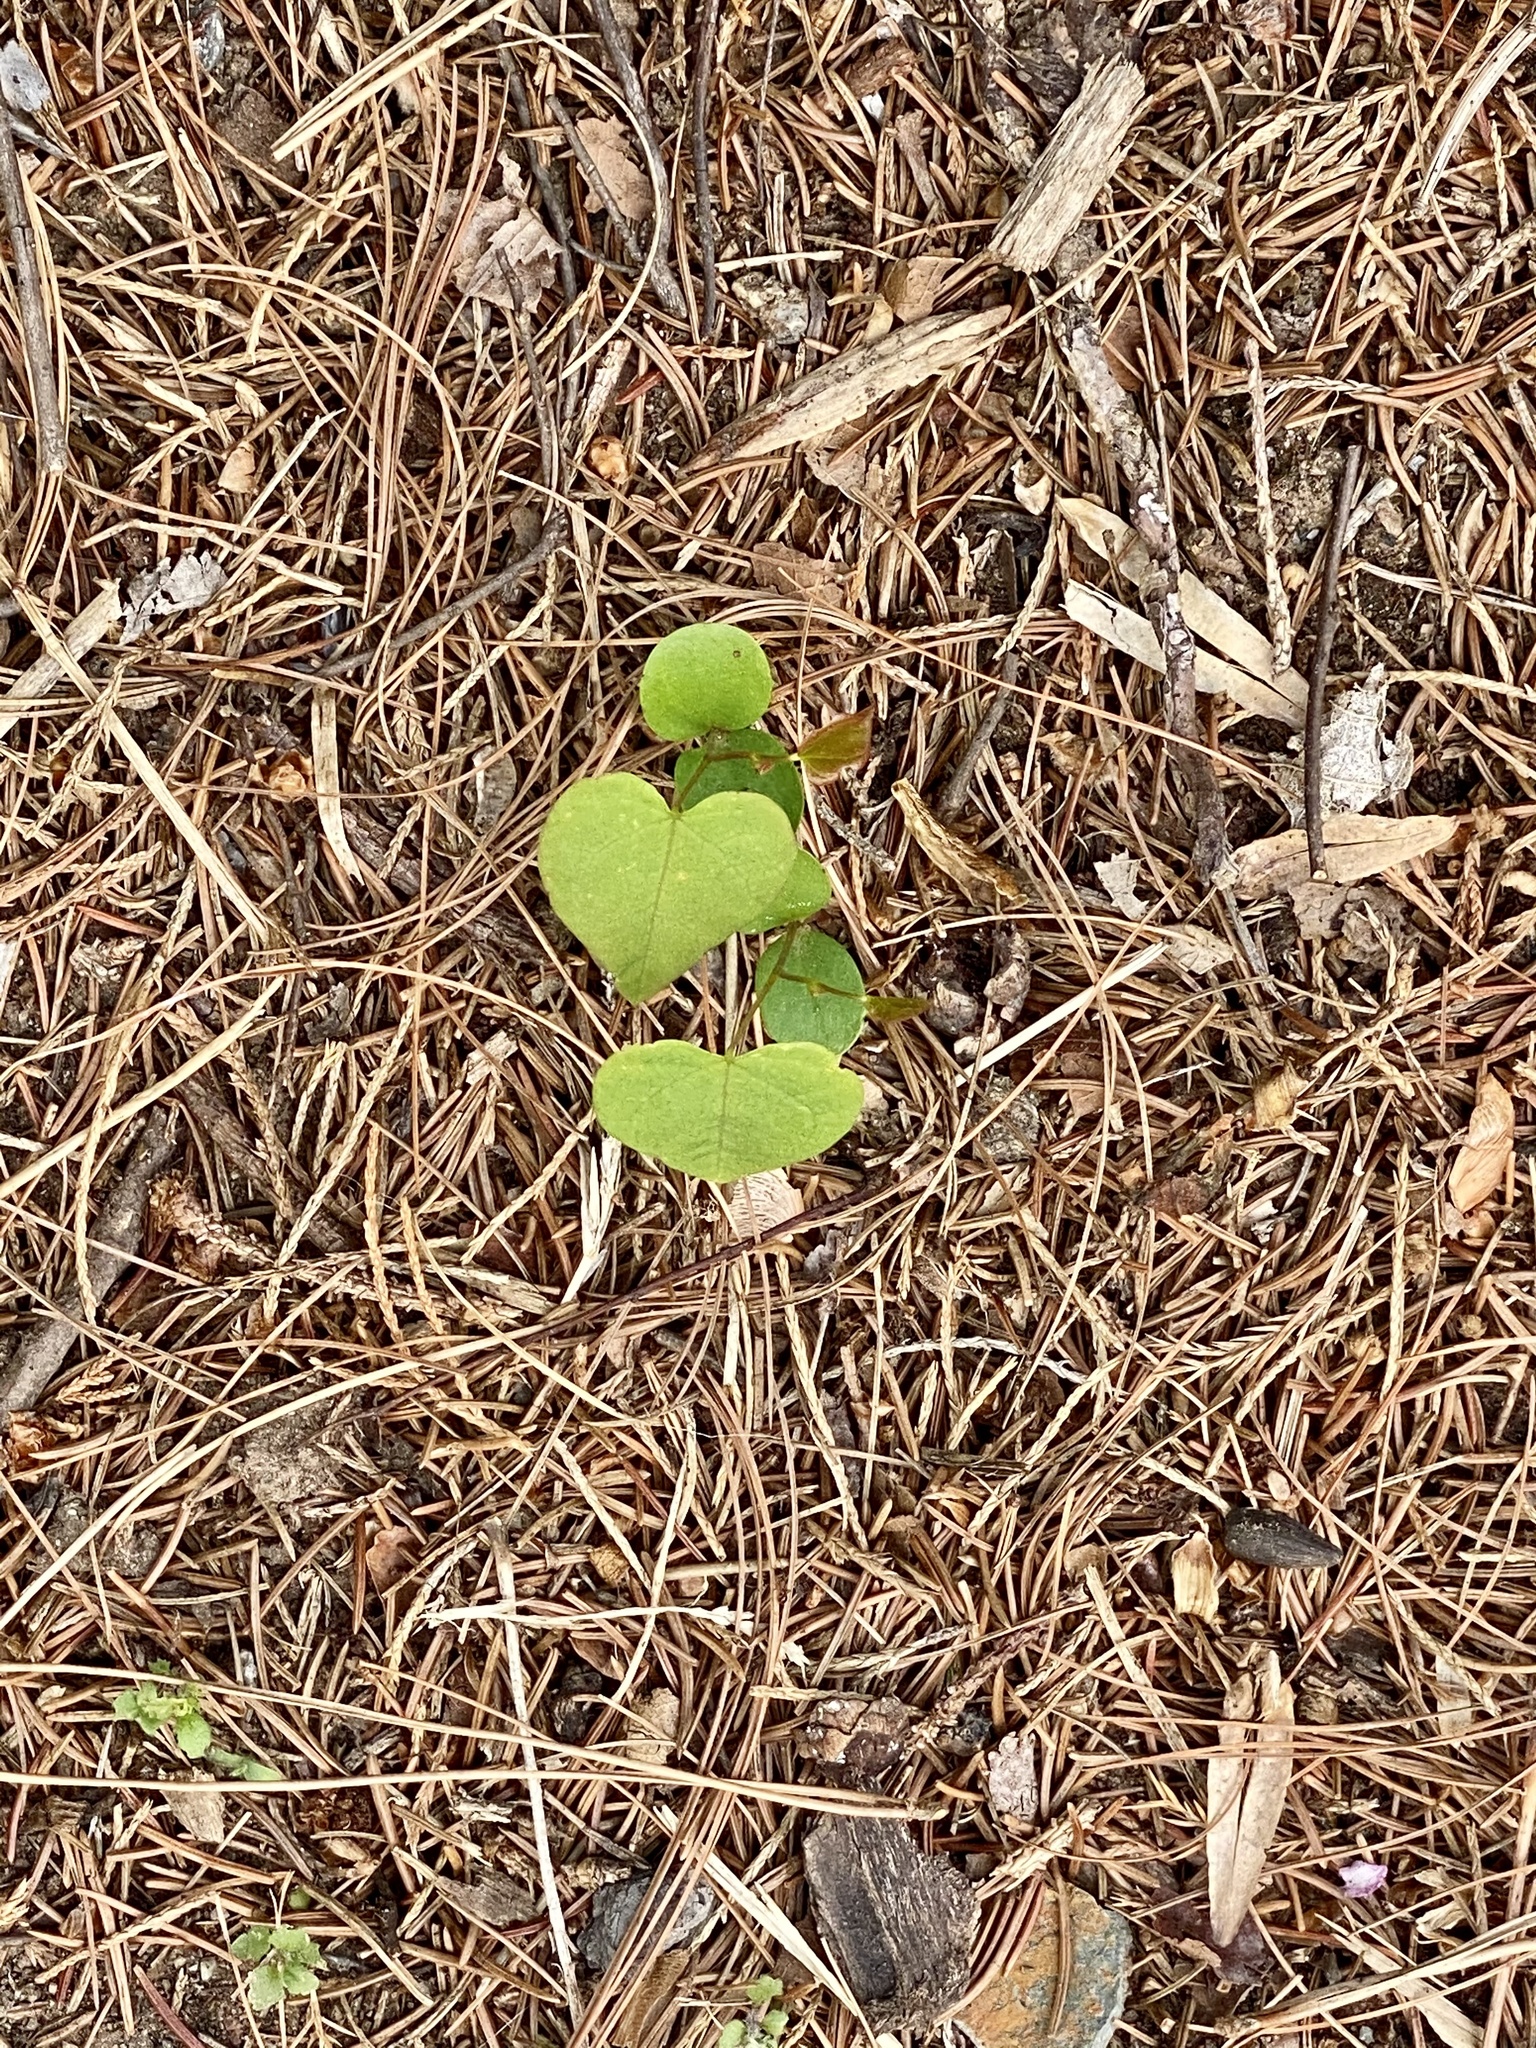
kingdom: Plantae
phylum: Tracheophyta
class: Magnoliopsida
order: Fabales
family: Fabaceae
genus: Cercis
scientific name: Cercis canadensis
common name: Eastern redbud
